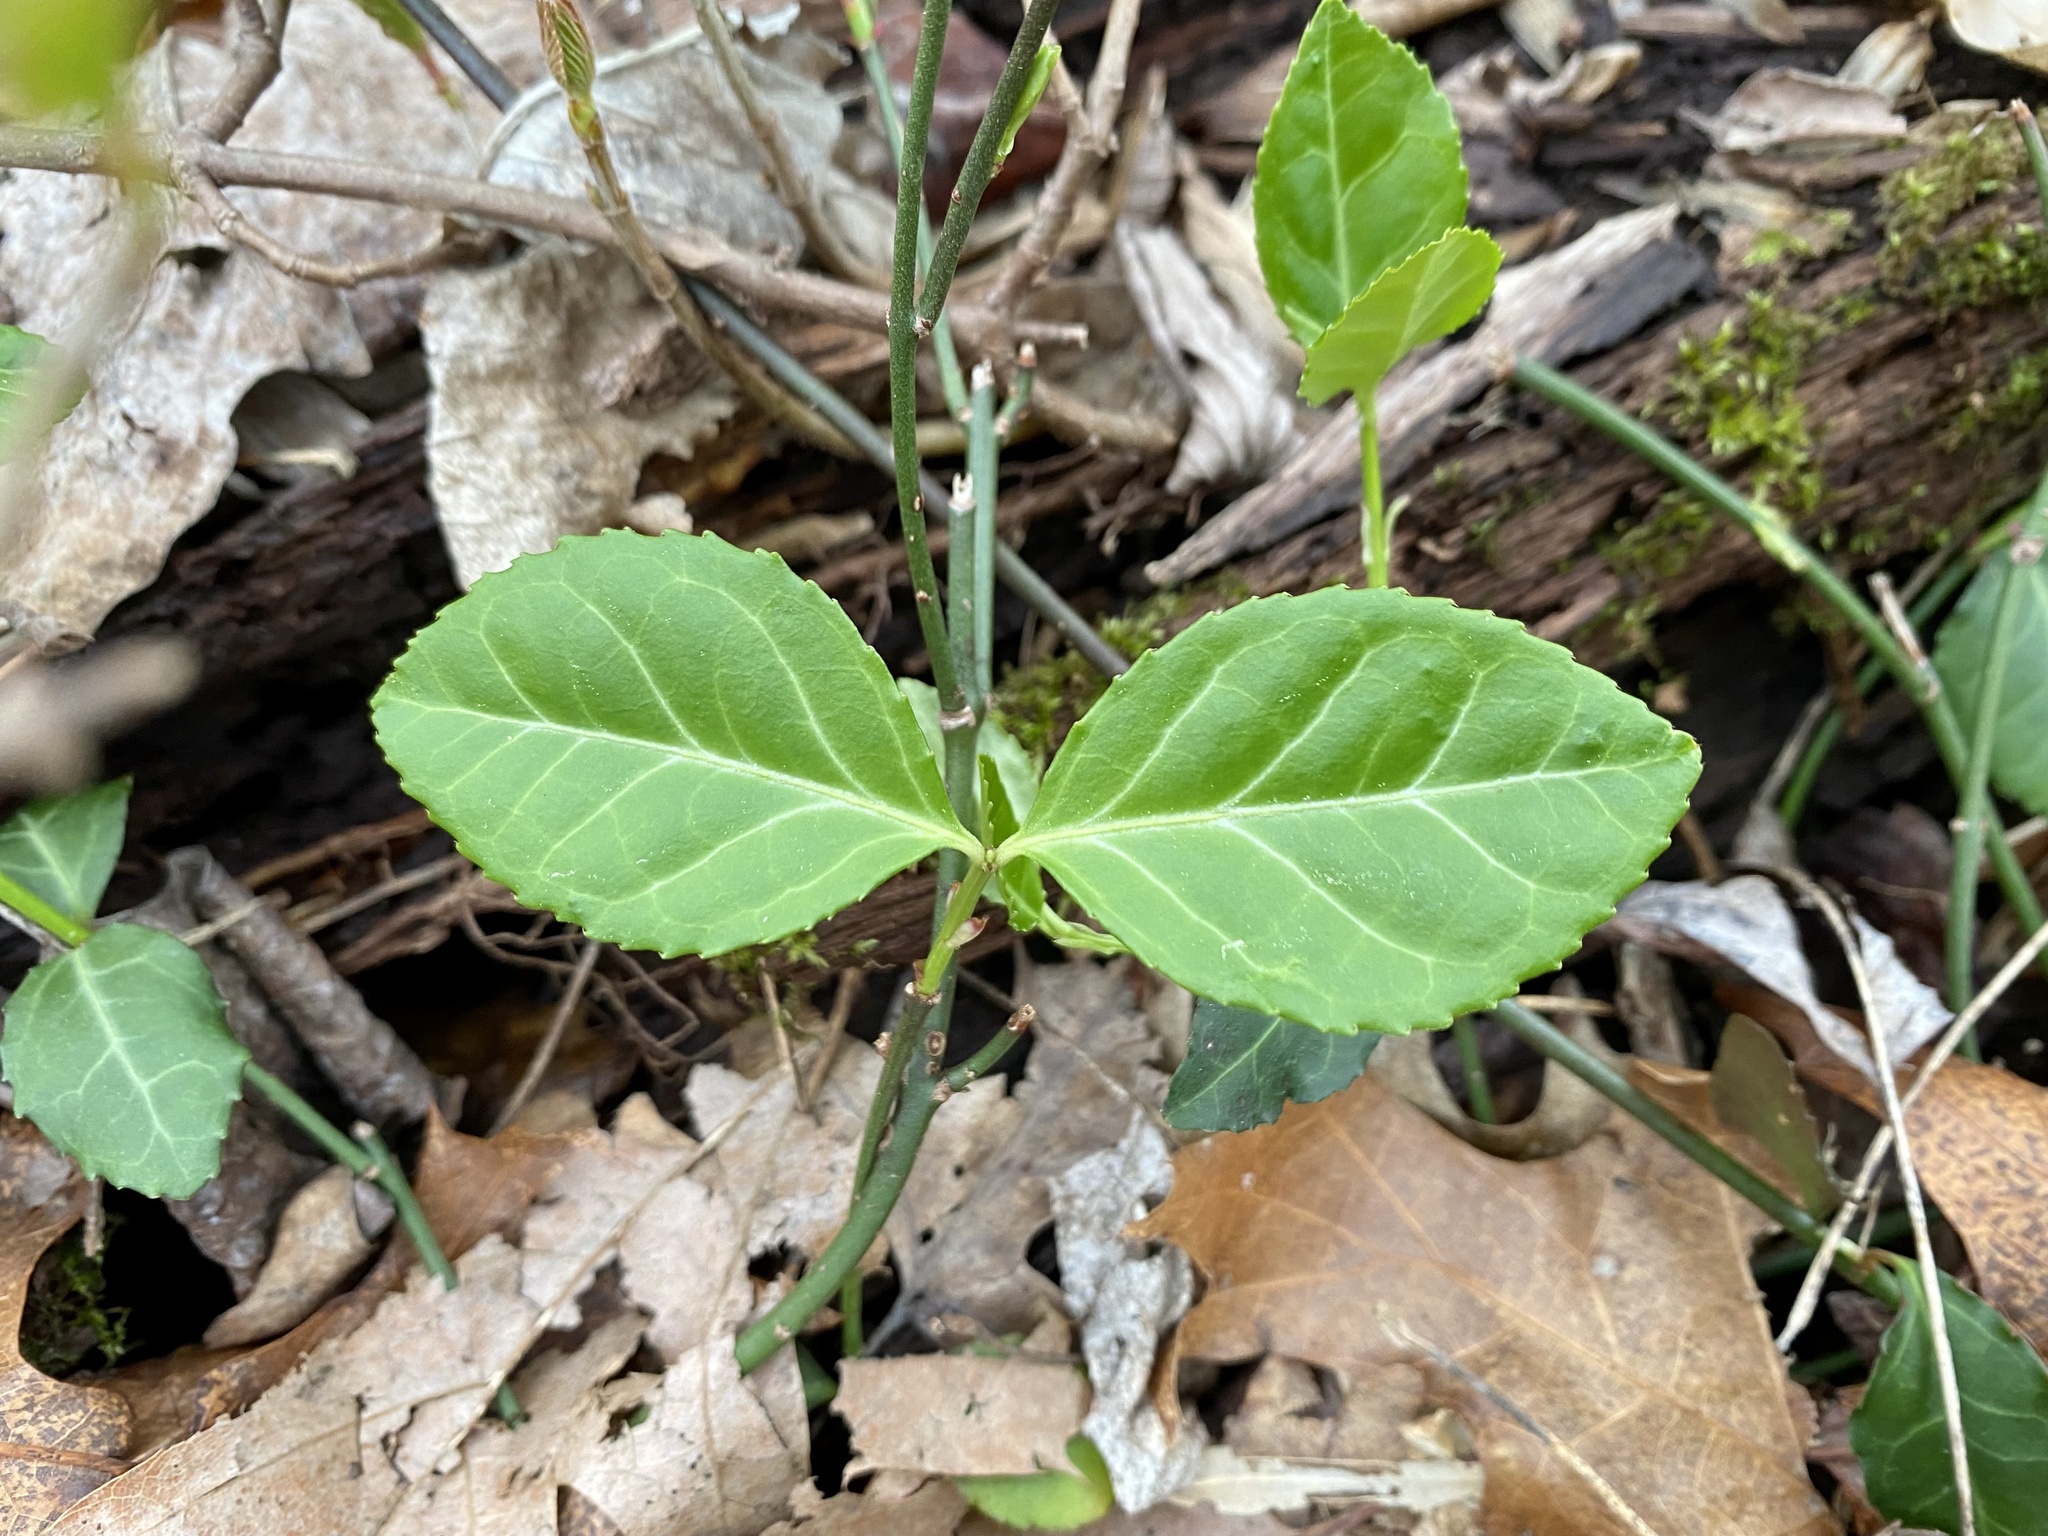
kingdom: Plantae
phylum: Tracheophyta
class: Magnoliopsida
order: Celastrales
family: Celastraceae
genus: Euonymus
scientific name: Euonymus fortunei
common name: Climbing euonymus
